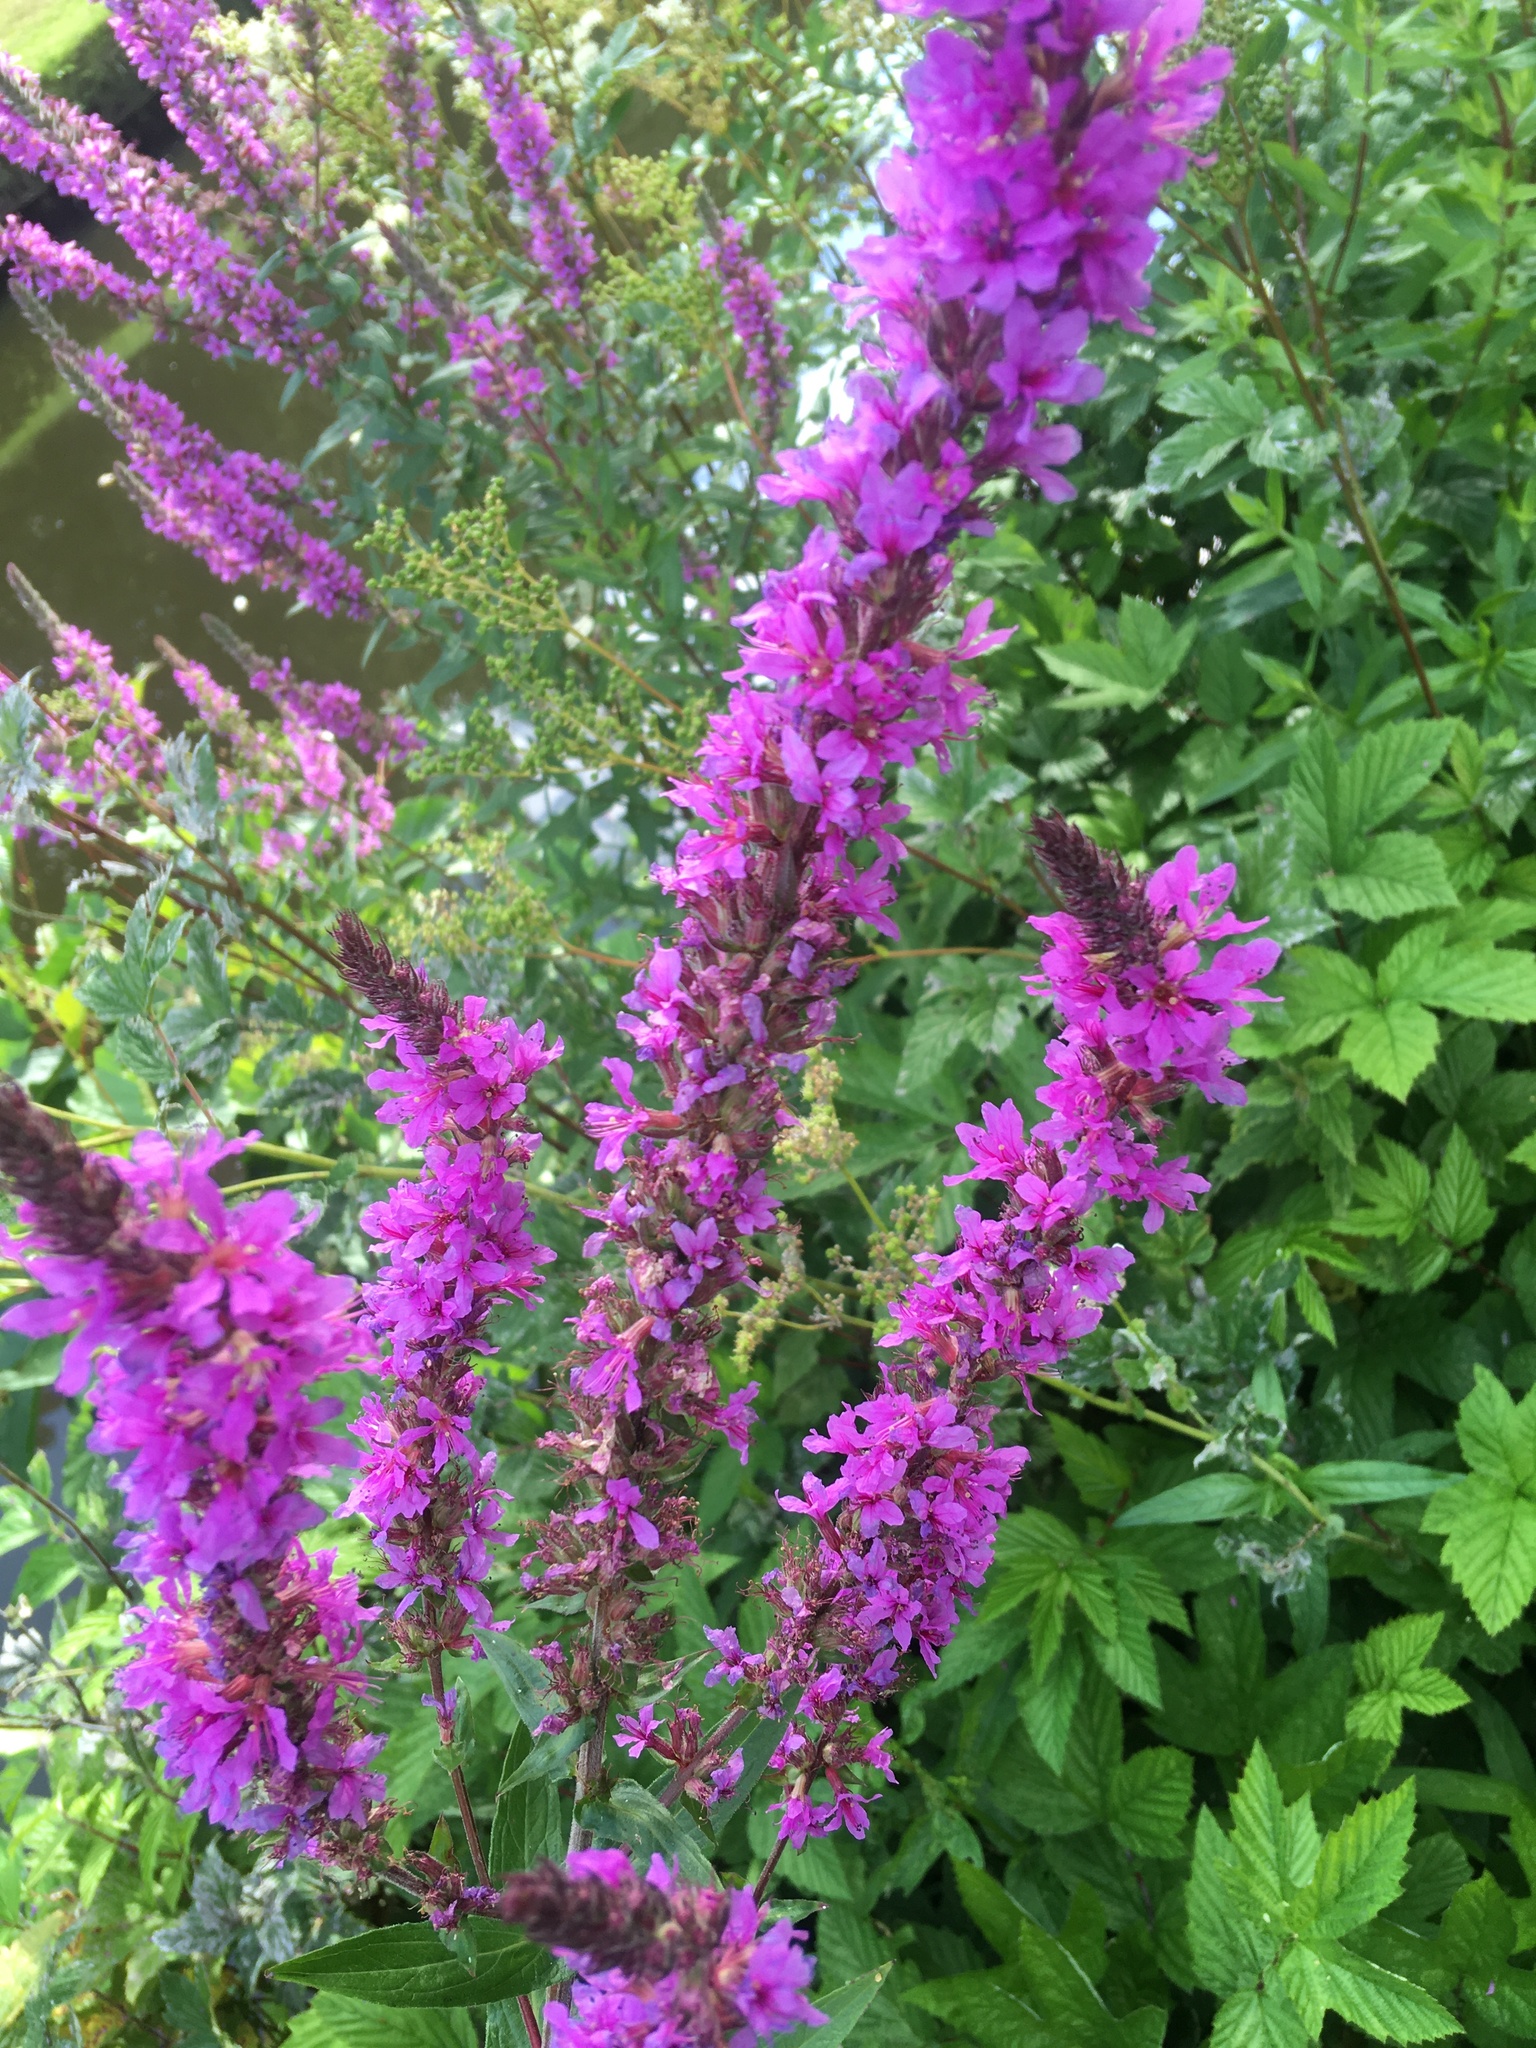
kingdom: Plantae
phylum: Tracheophyta
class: Magnoliopsida
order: Myrtales
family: Lythraceae
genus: Lythrum
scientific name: Lythrum salicaria
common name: Purple loosestrife
